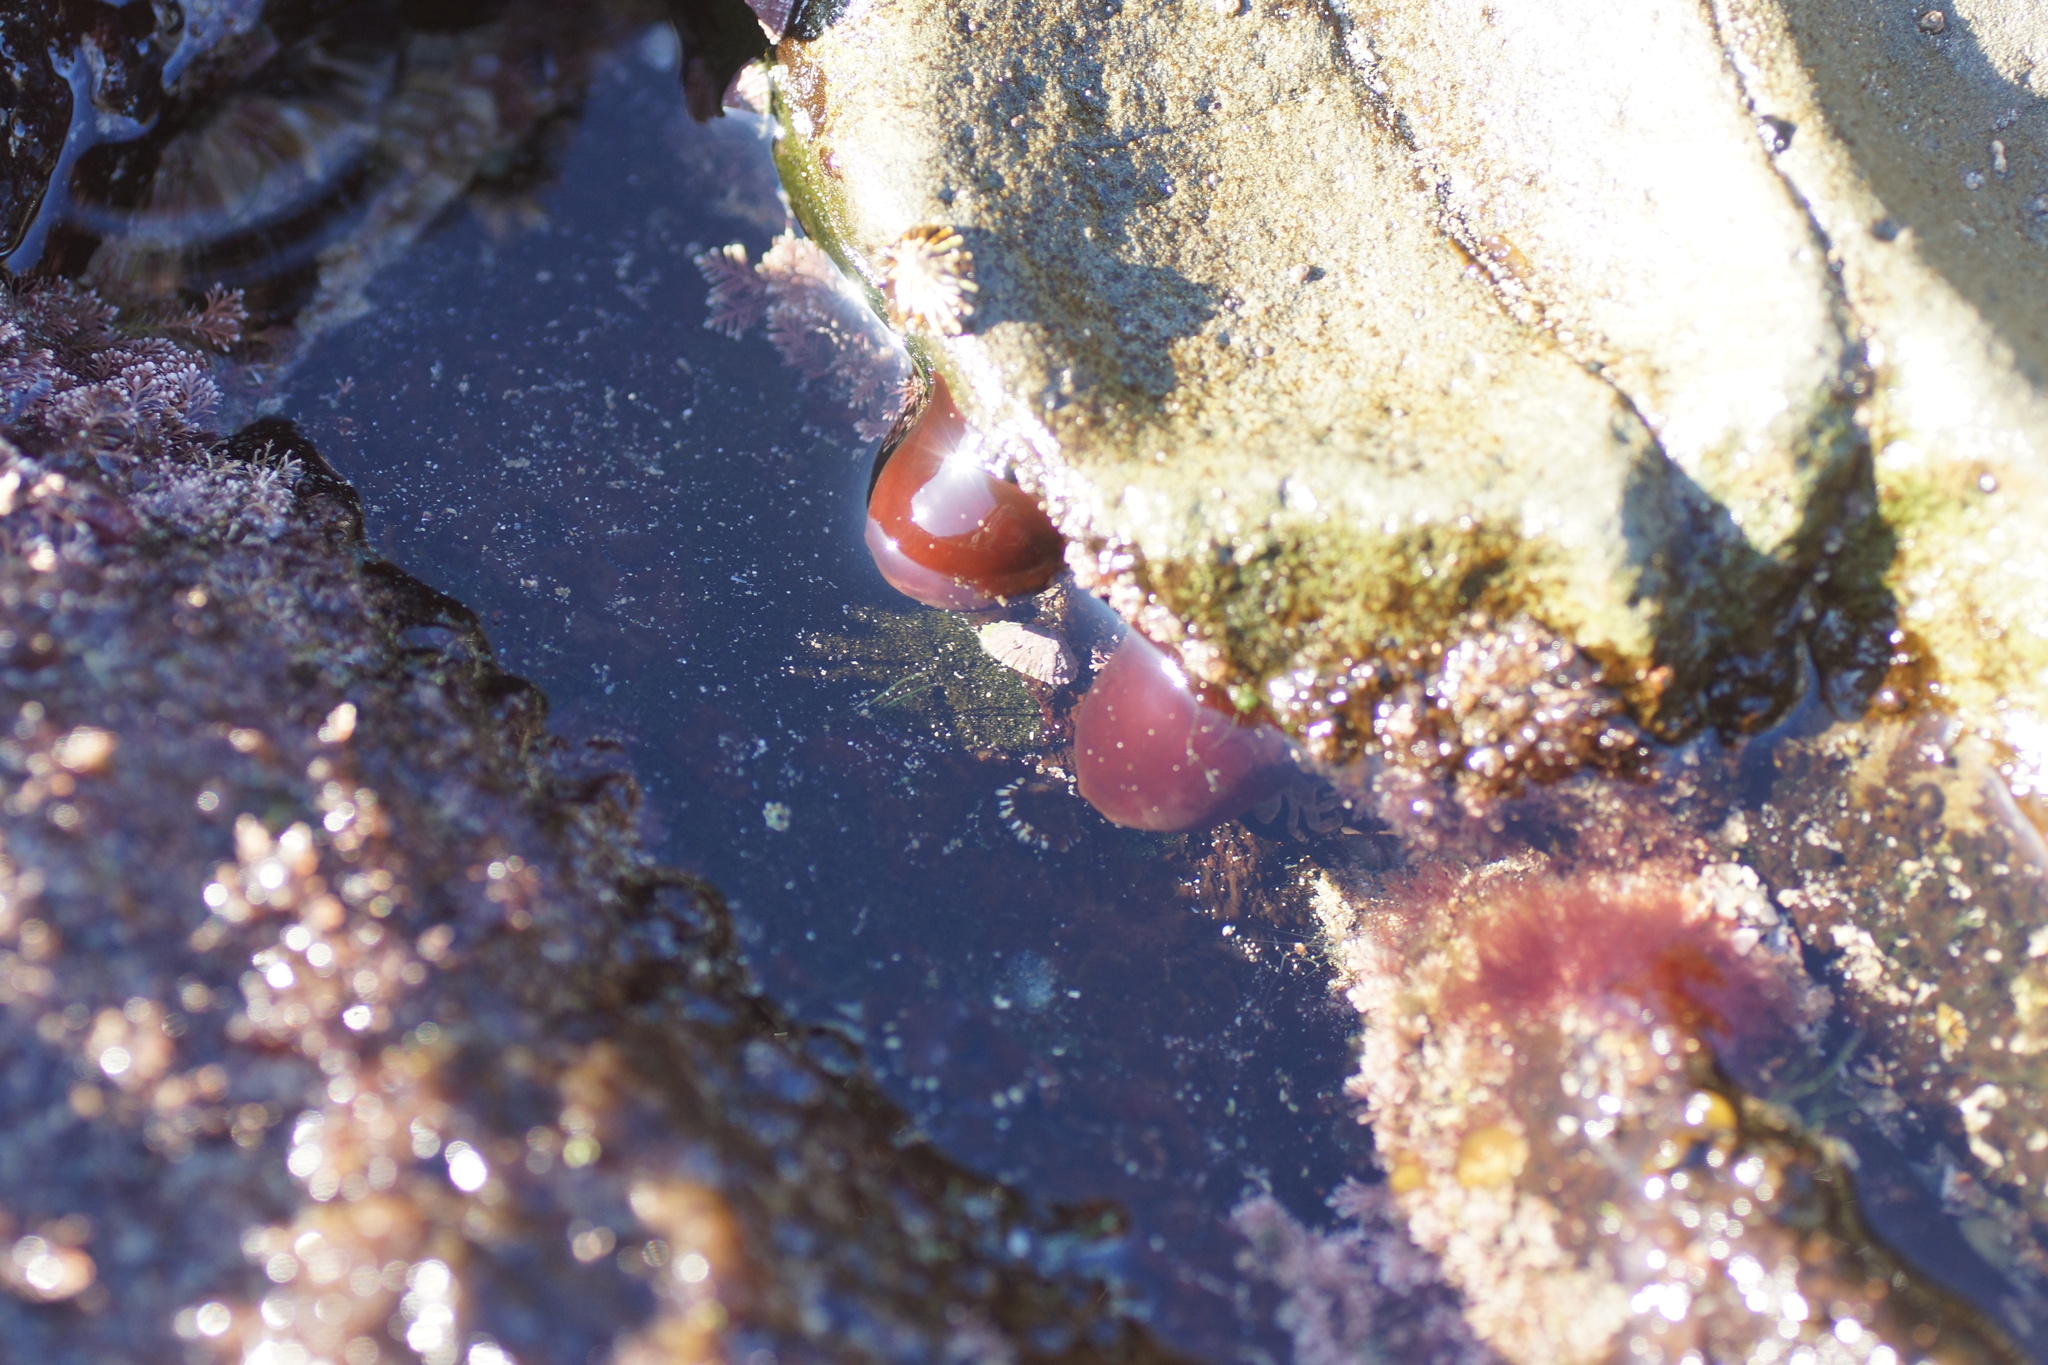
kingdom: Animalia
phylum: Cnidaria
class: Anthozoa
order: Actiniaria
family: Actiniidae
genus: Actinia
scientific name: Actinia tenebrosa
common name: Waratah anemone
